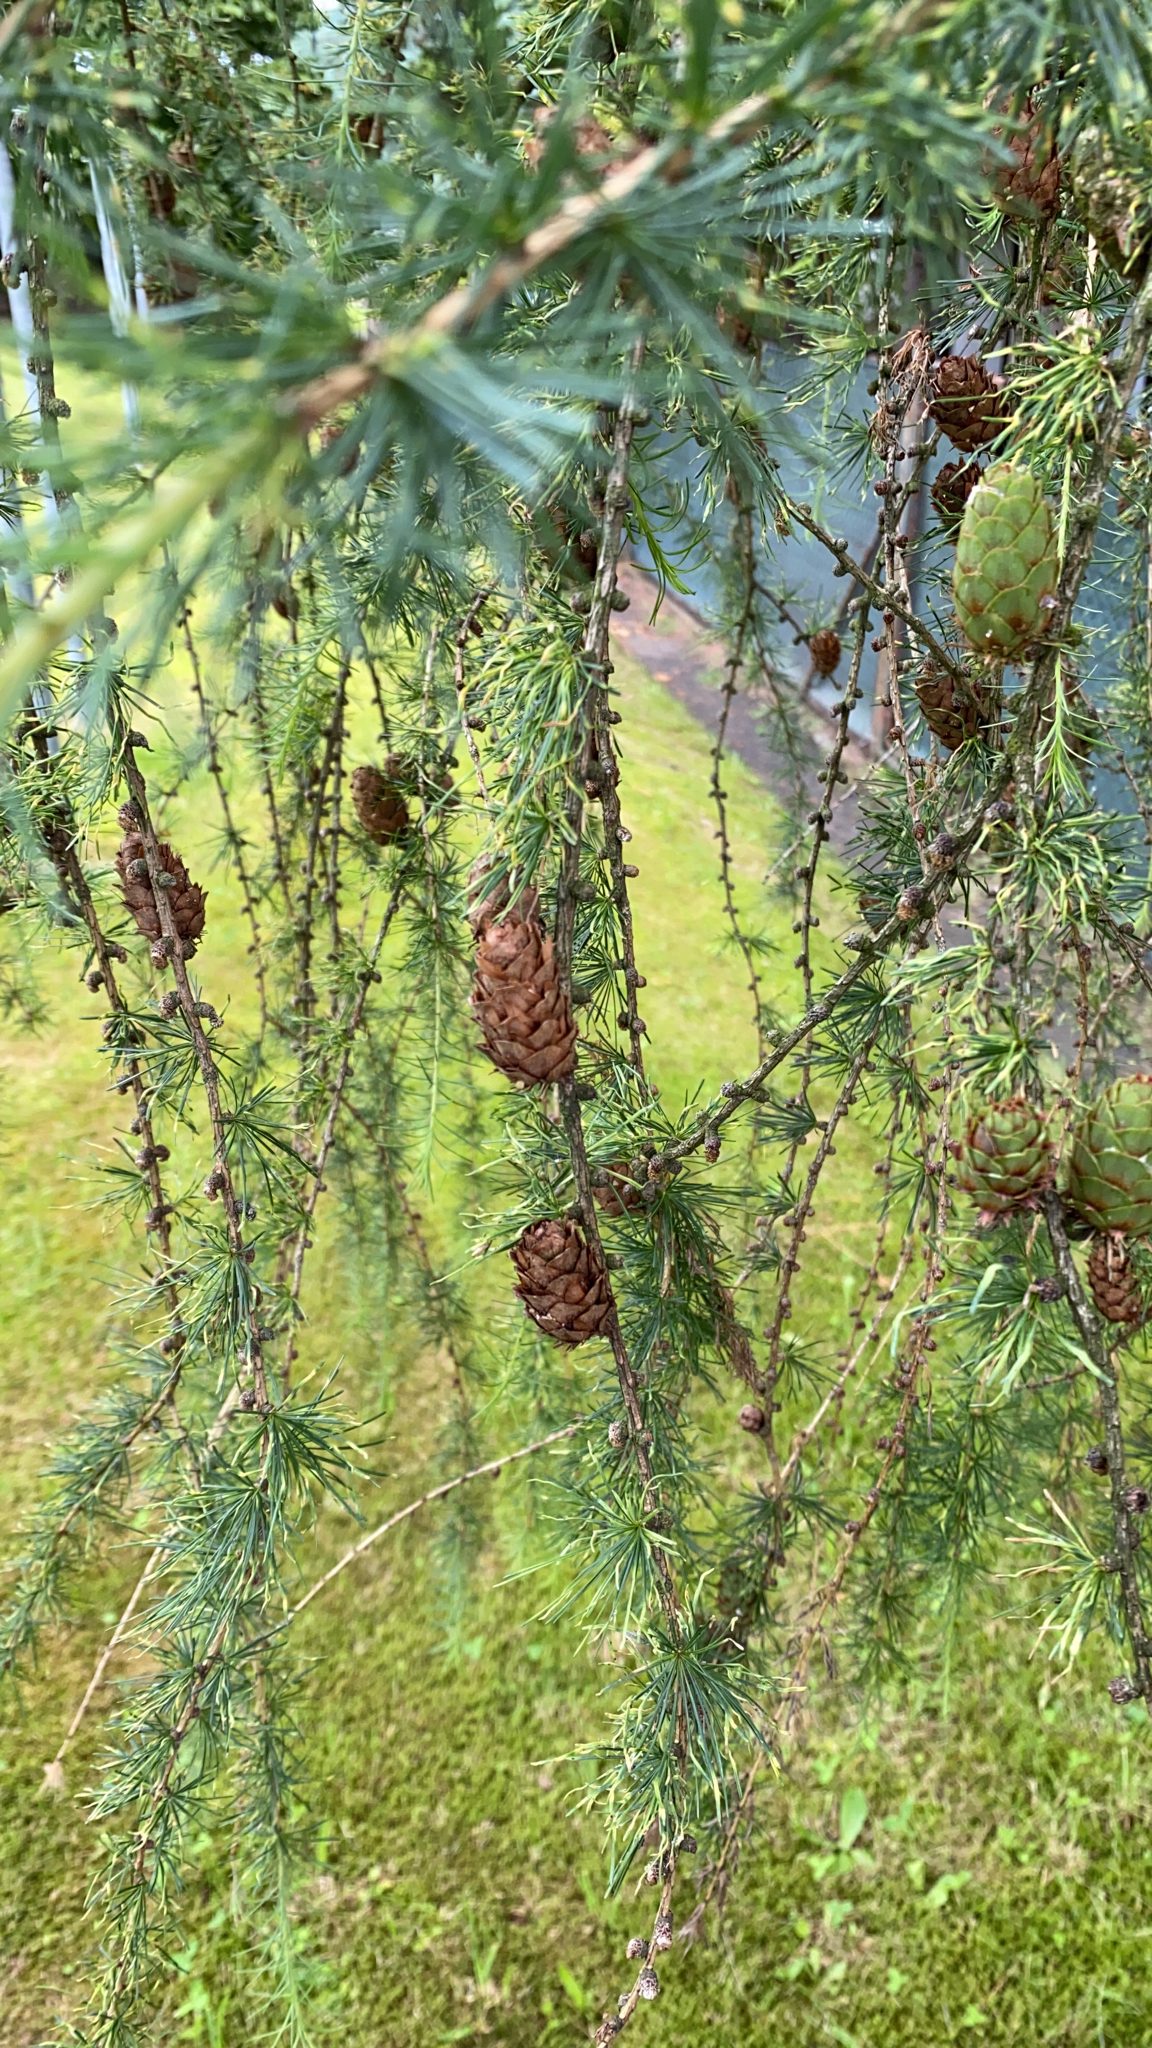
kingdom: Plantae
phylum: Tracheophyta
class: Pinopsida
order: Pinales
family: Pinaceae
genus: Larix
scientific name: Larix decidua
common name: European larch
